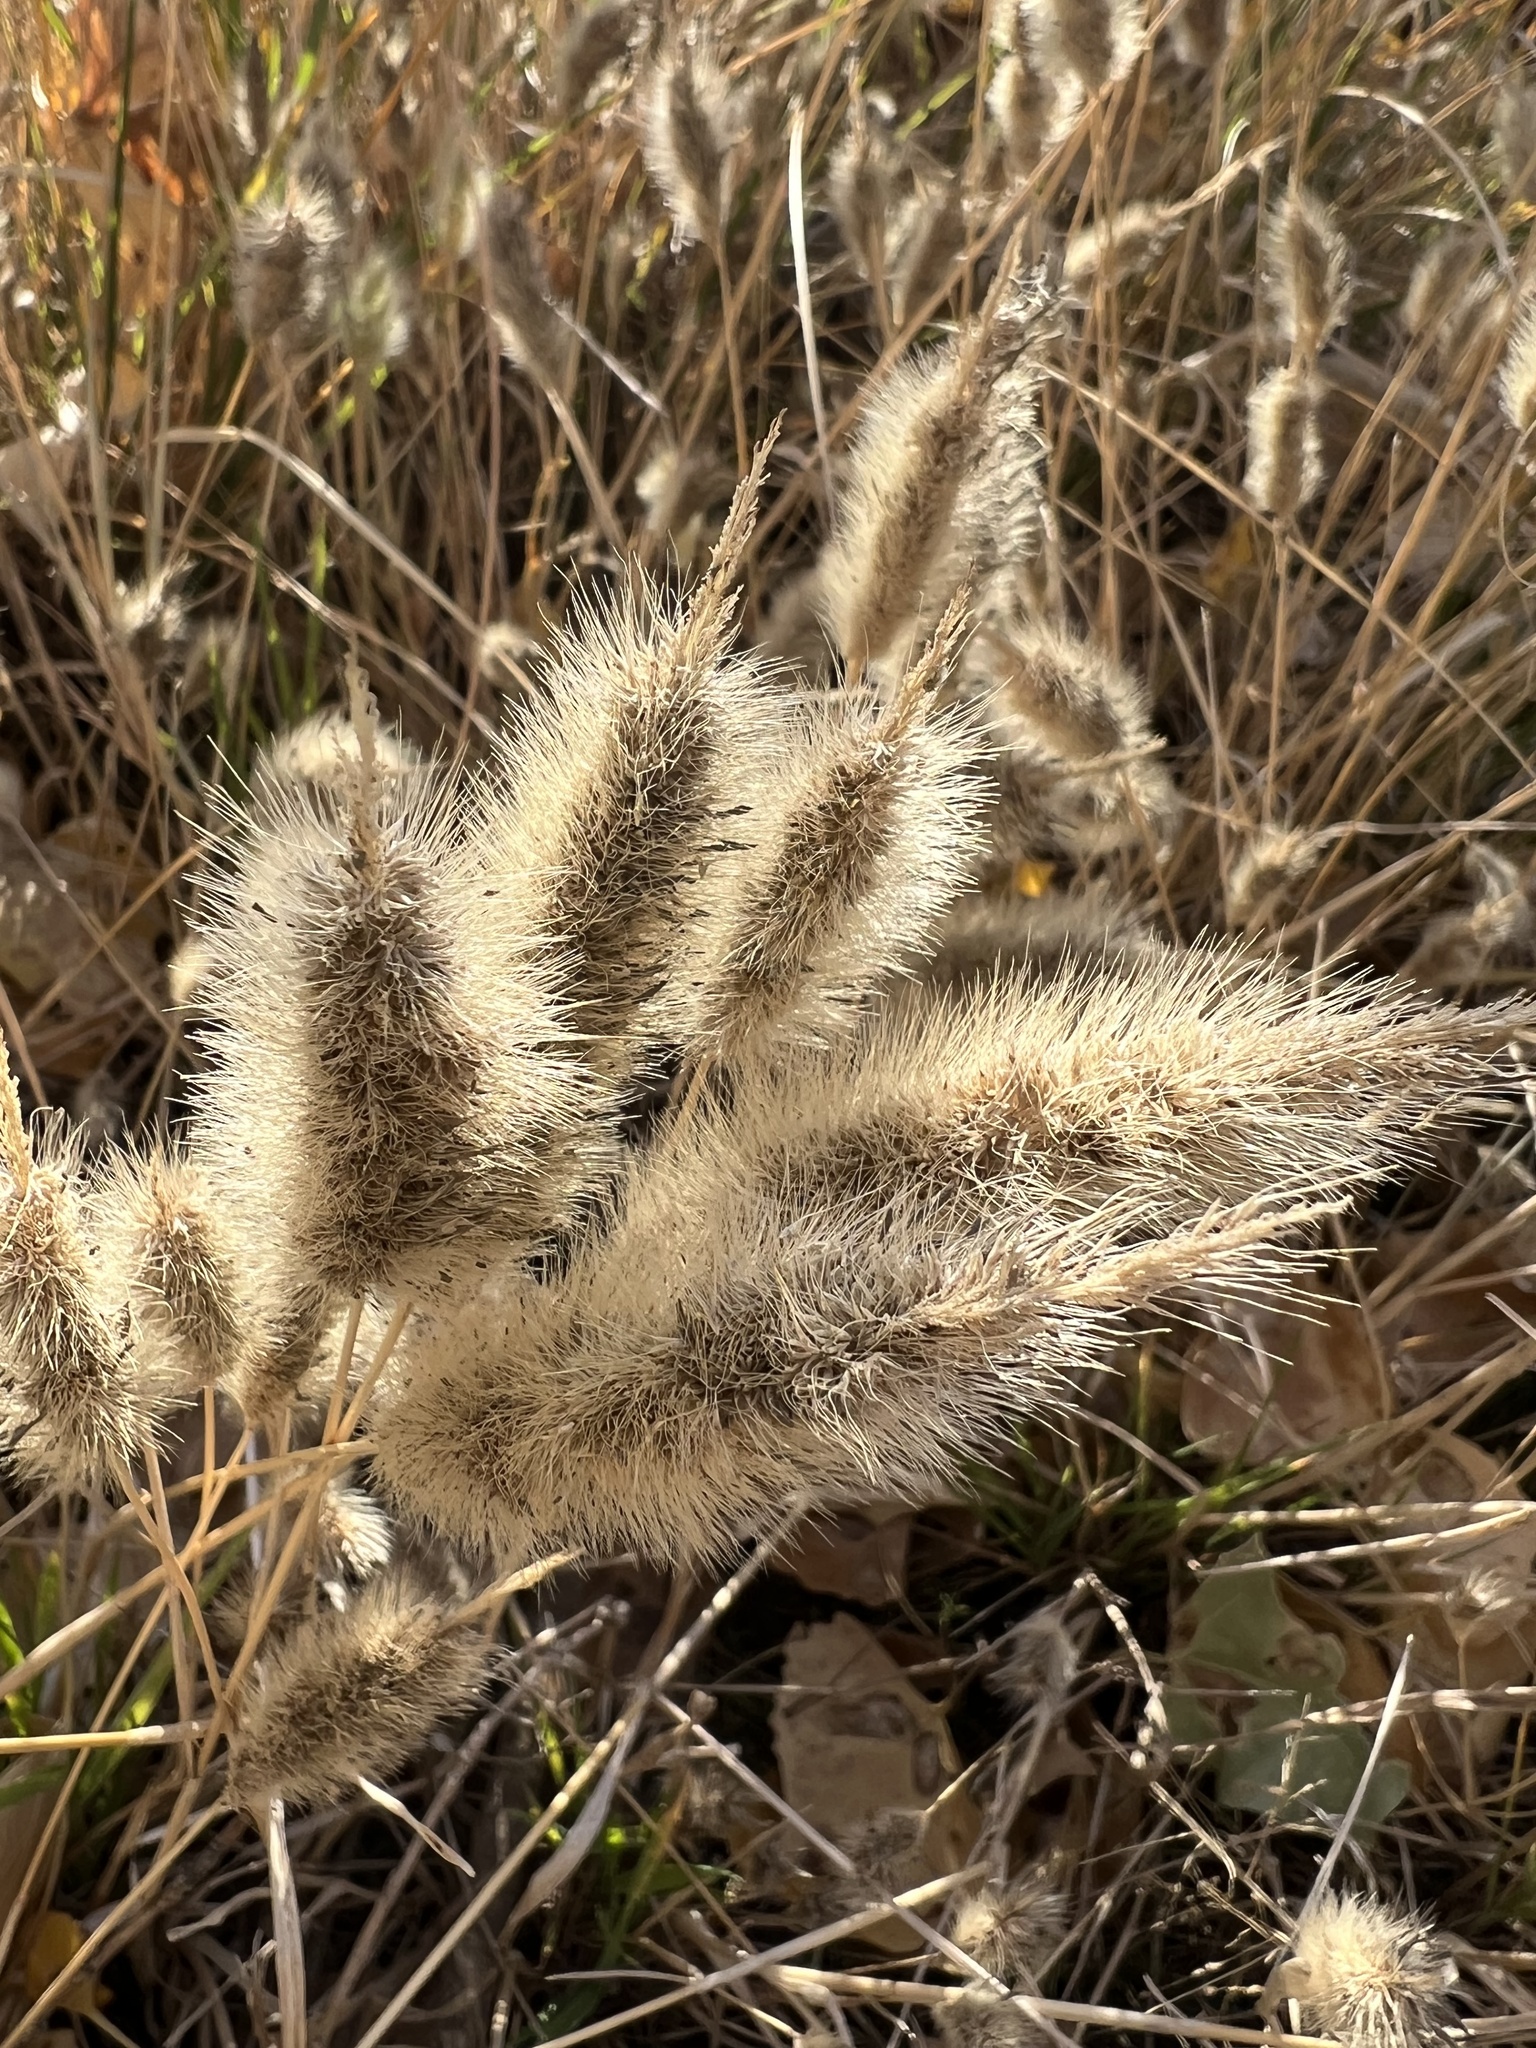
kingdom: Plantae
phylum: Tracheophyta
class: Liliopsida
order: Poales
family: Poaceae
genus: Polypogon
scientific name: Polypogon monspeliensis
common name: Annual rabbitsfoot grass
